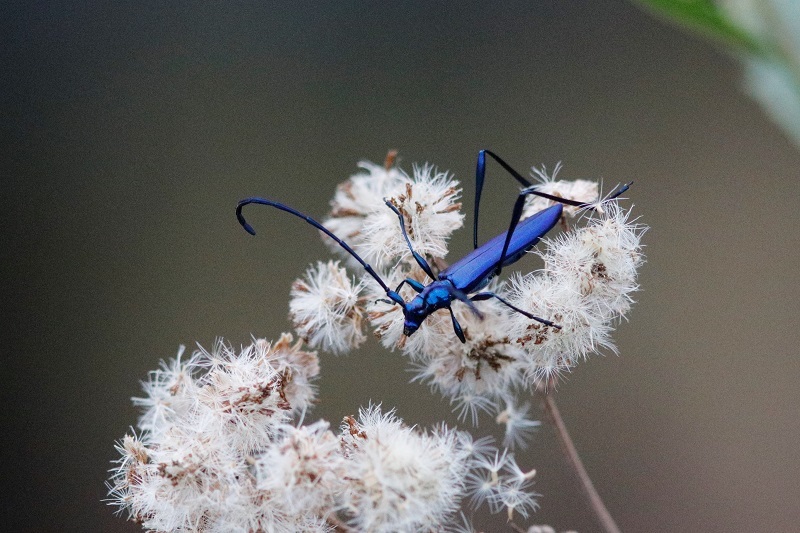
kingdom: Animalia
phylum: Arthropoda
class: Insecta
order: Coleoptera
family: Cerambycidae
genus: Promeces
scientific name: Promeces longipes
